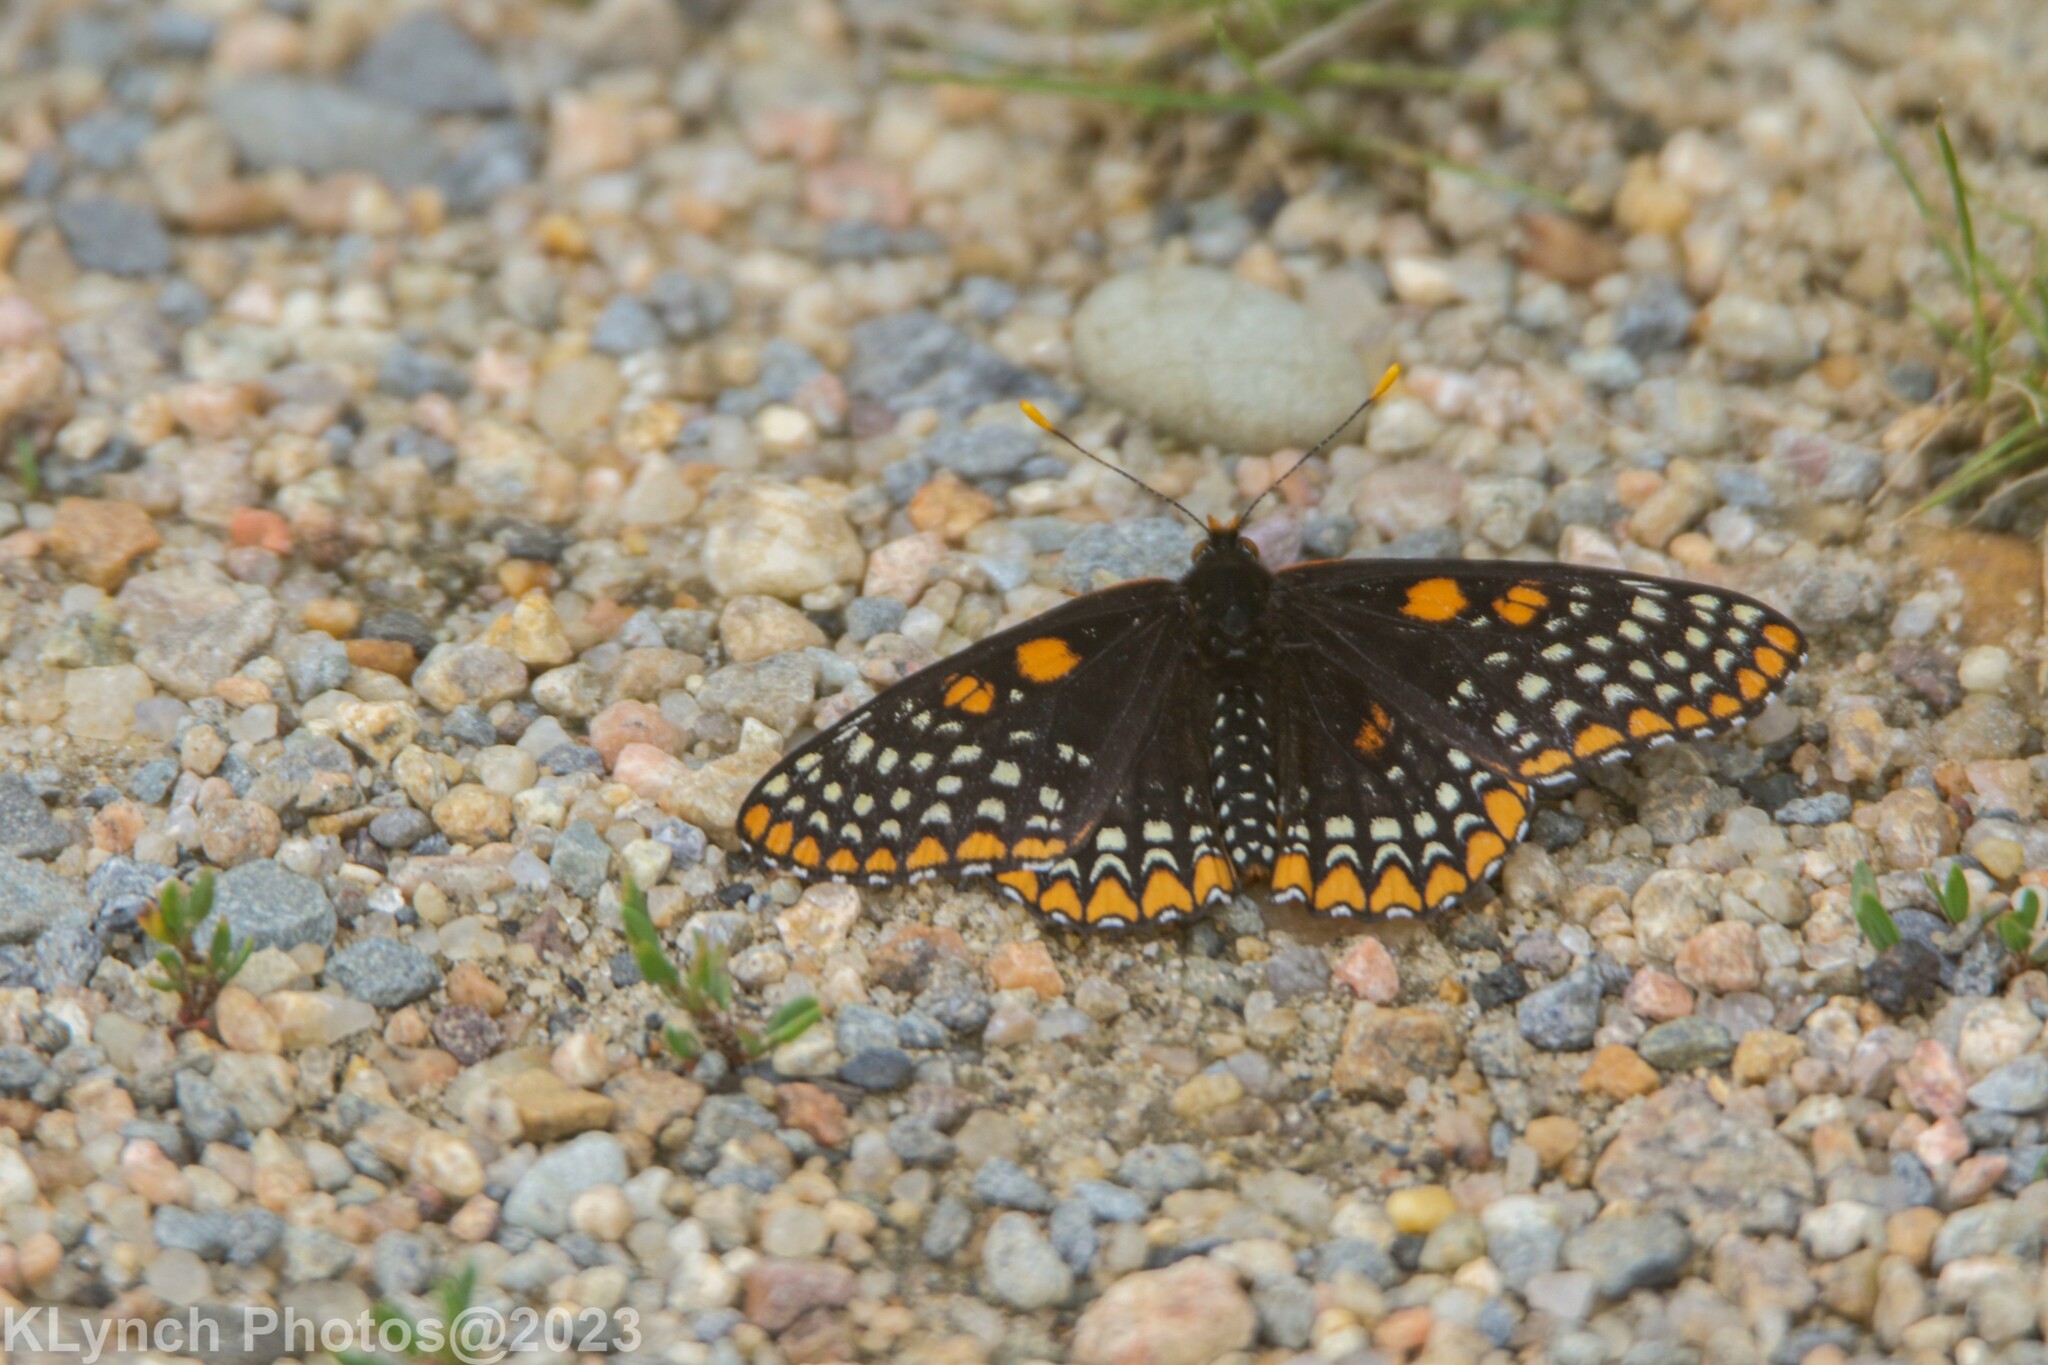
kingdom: Animalia
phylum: Arthropoda
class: Insecta
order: Lepidoptera
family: Nymphalidae
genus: Euphydryas
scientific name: Euphydryas phaeton
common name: Baltimore checkerspot
